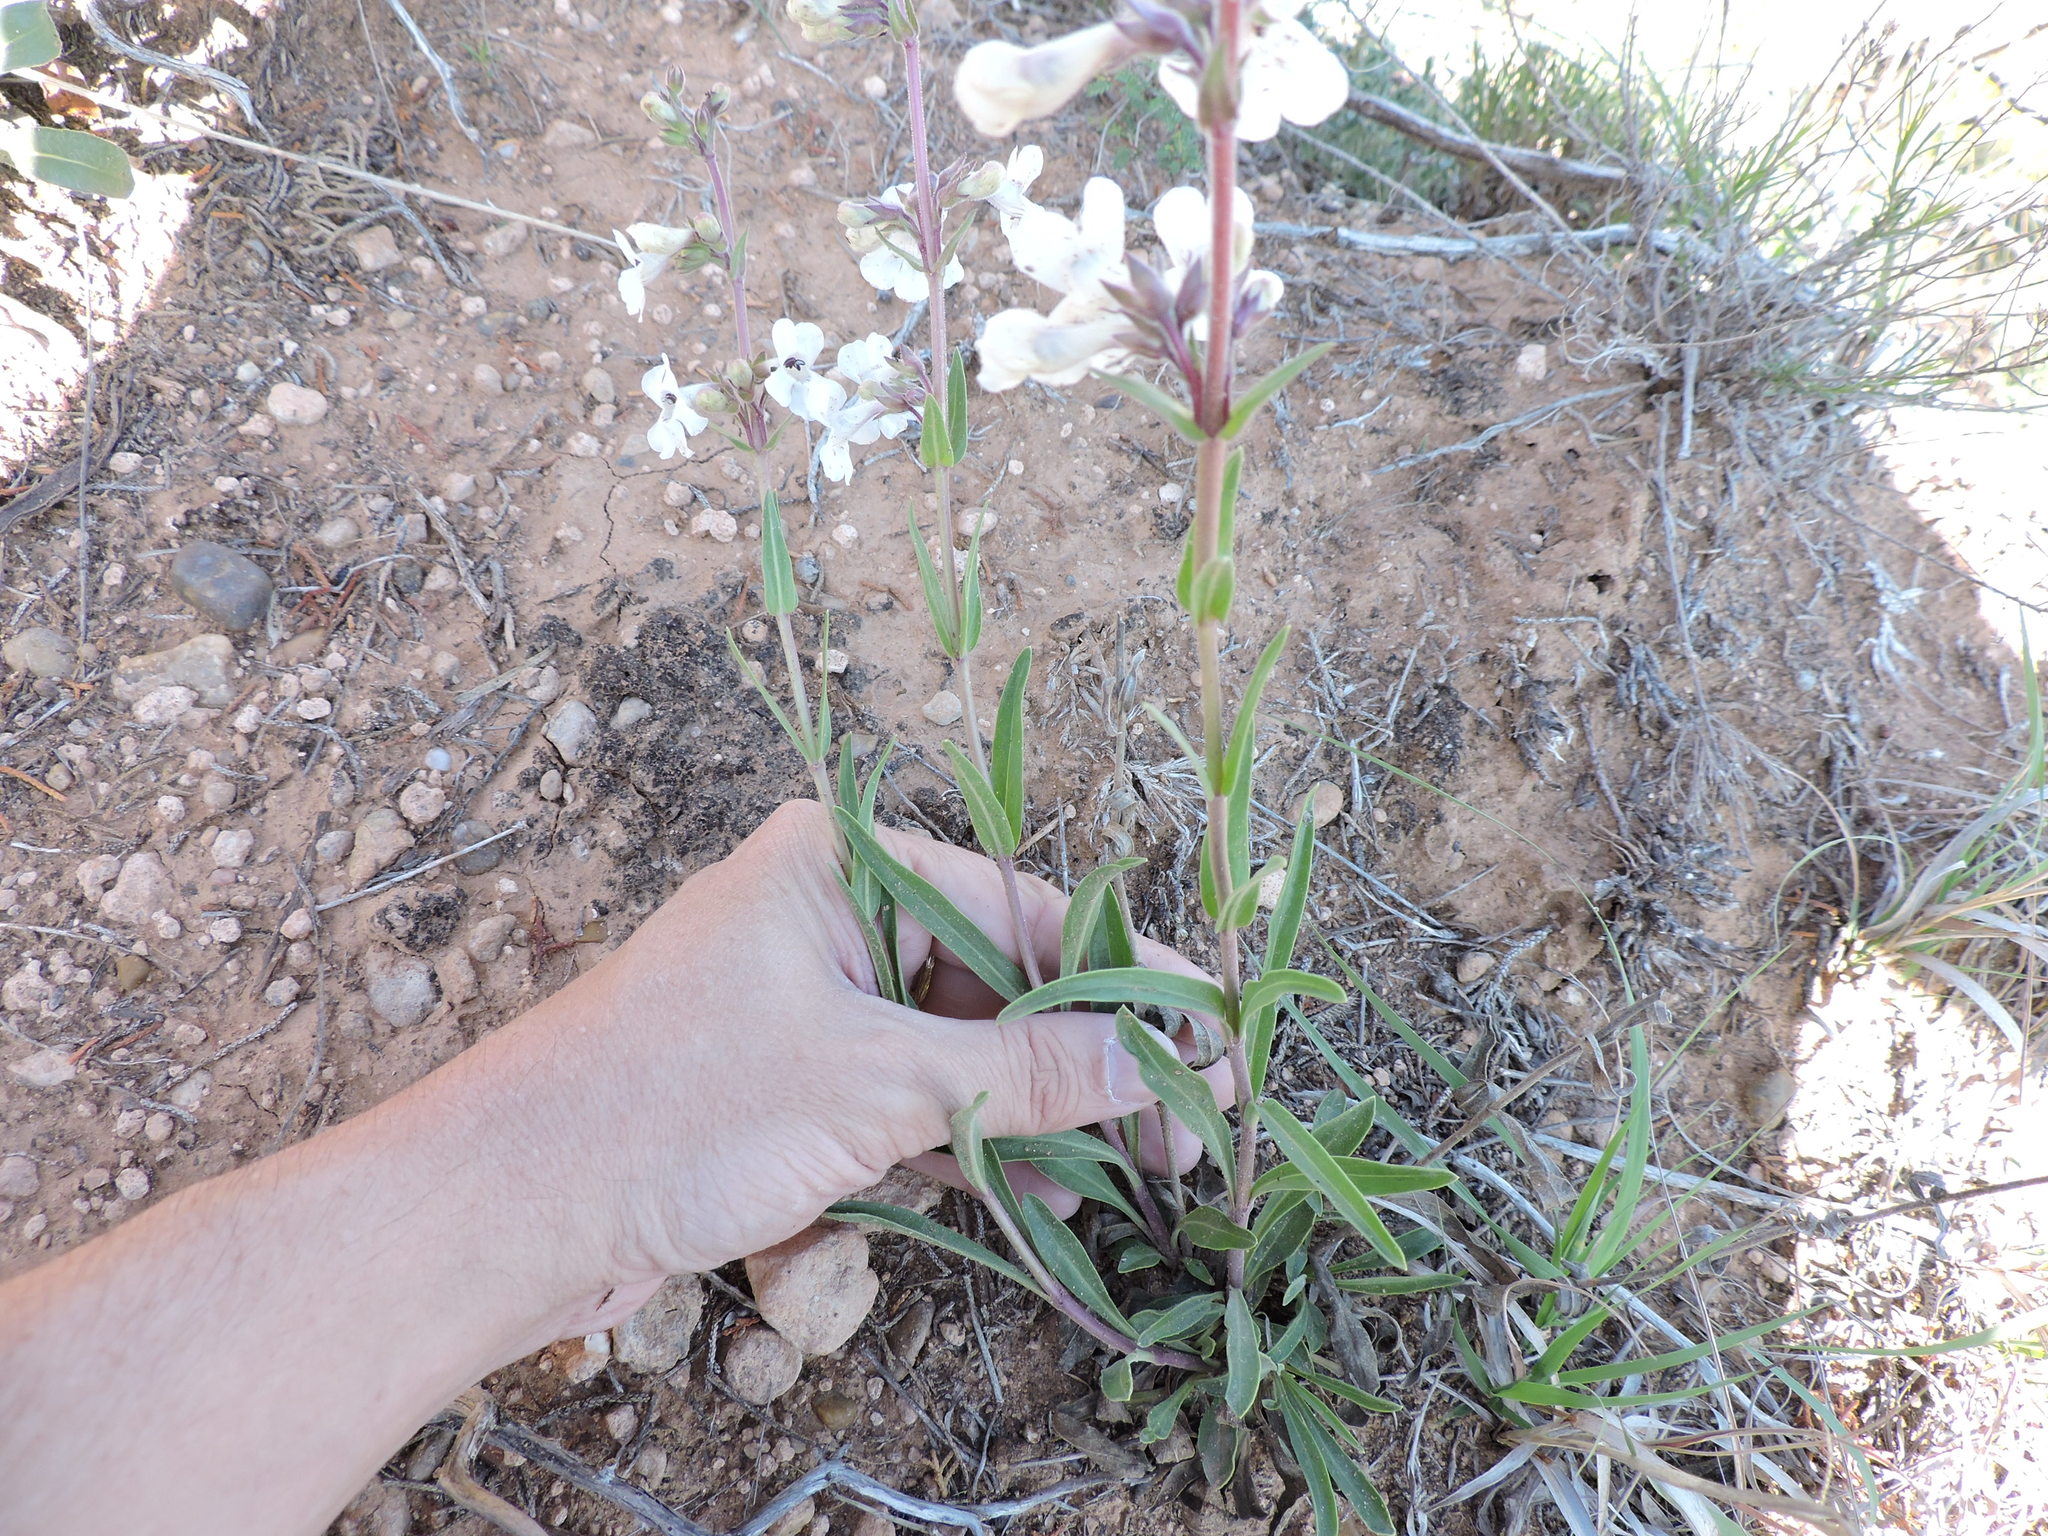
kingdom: Plantae
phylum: Tracheophyta
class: Magnoliopsida
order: Lamiales
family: Plantaginaceae
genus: Penstemon
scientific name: Penstemon albidus
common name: White beardtongue
